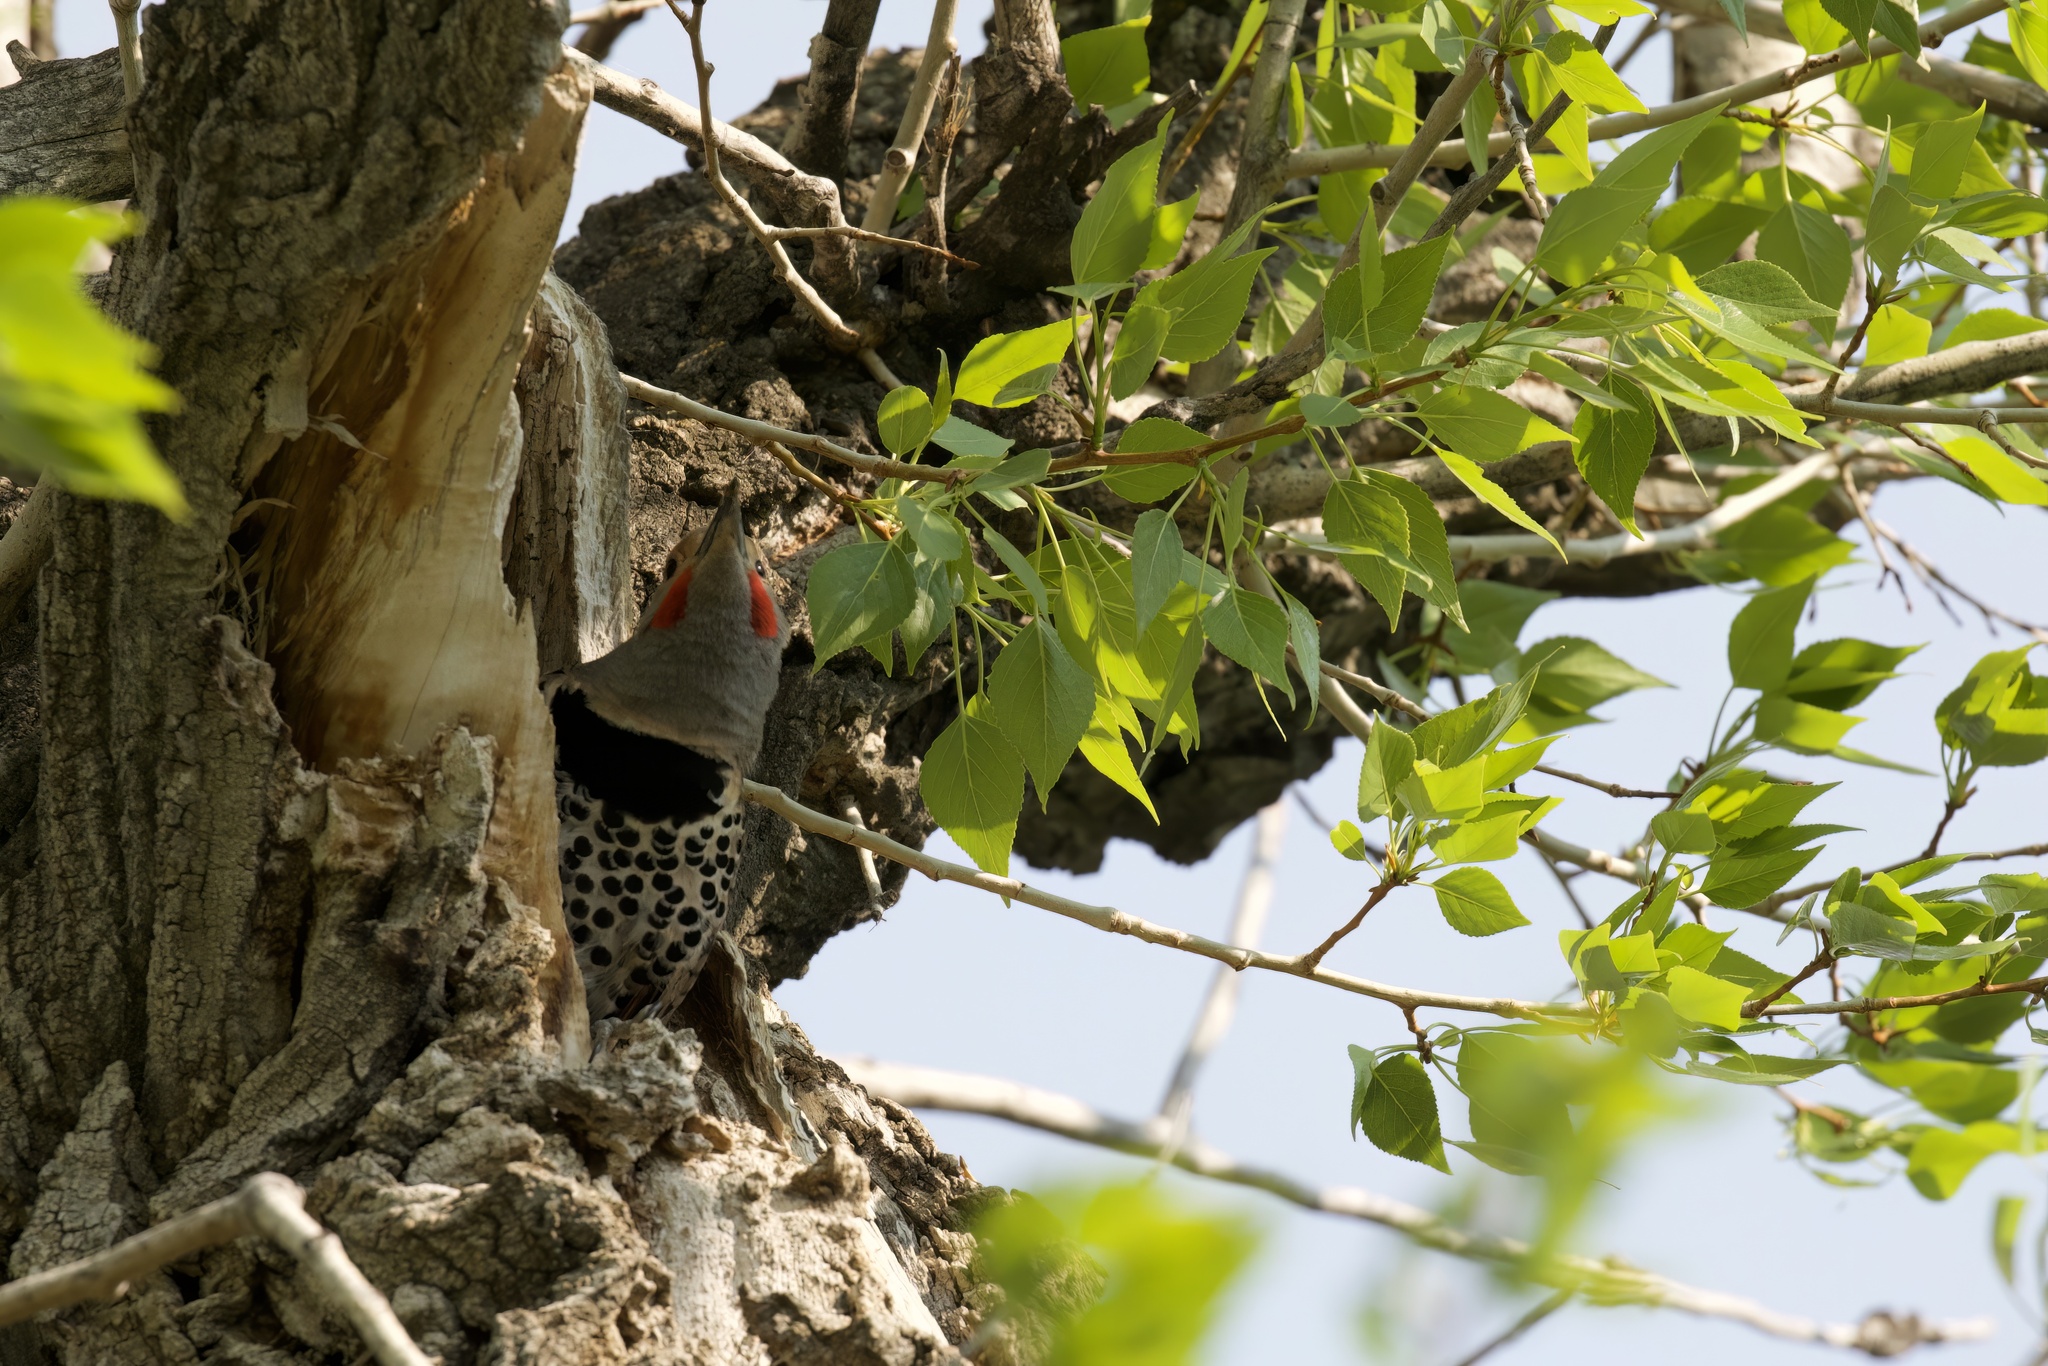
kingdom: Animalia
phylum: Chordata
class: Aves
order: Piciformes
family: Picidae
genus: Colaptes
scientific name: Colaptes auratus
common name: Northern flicker
